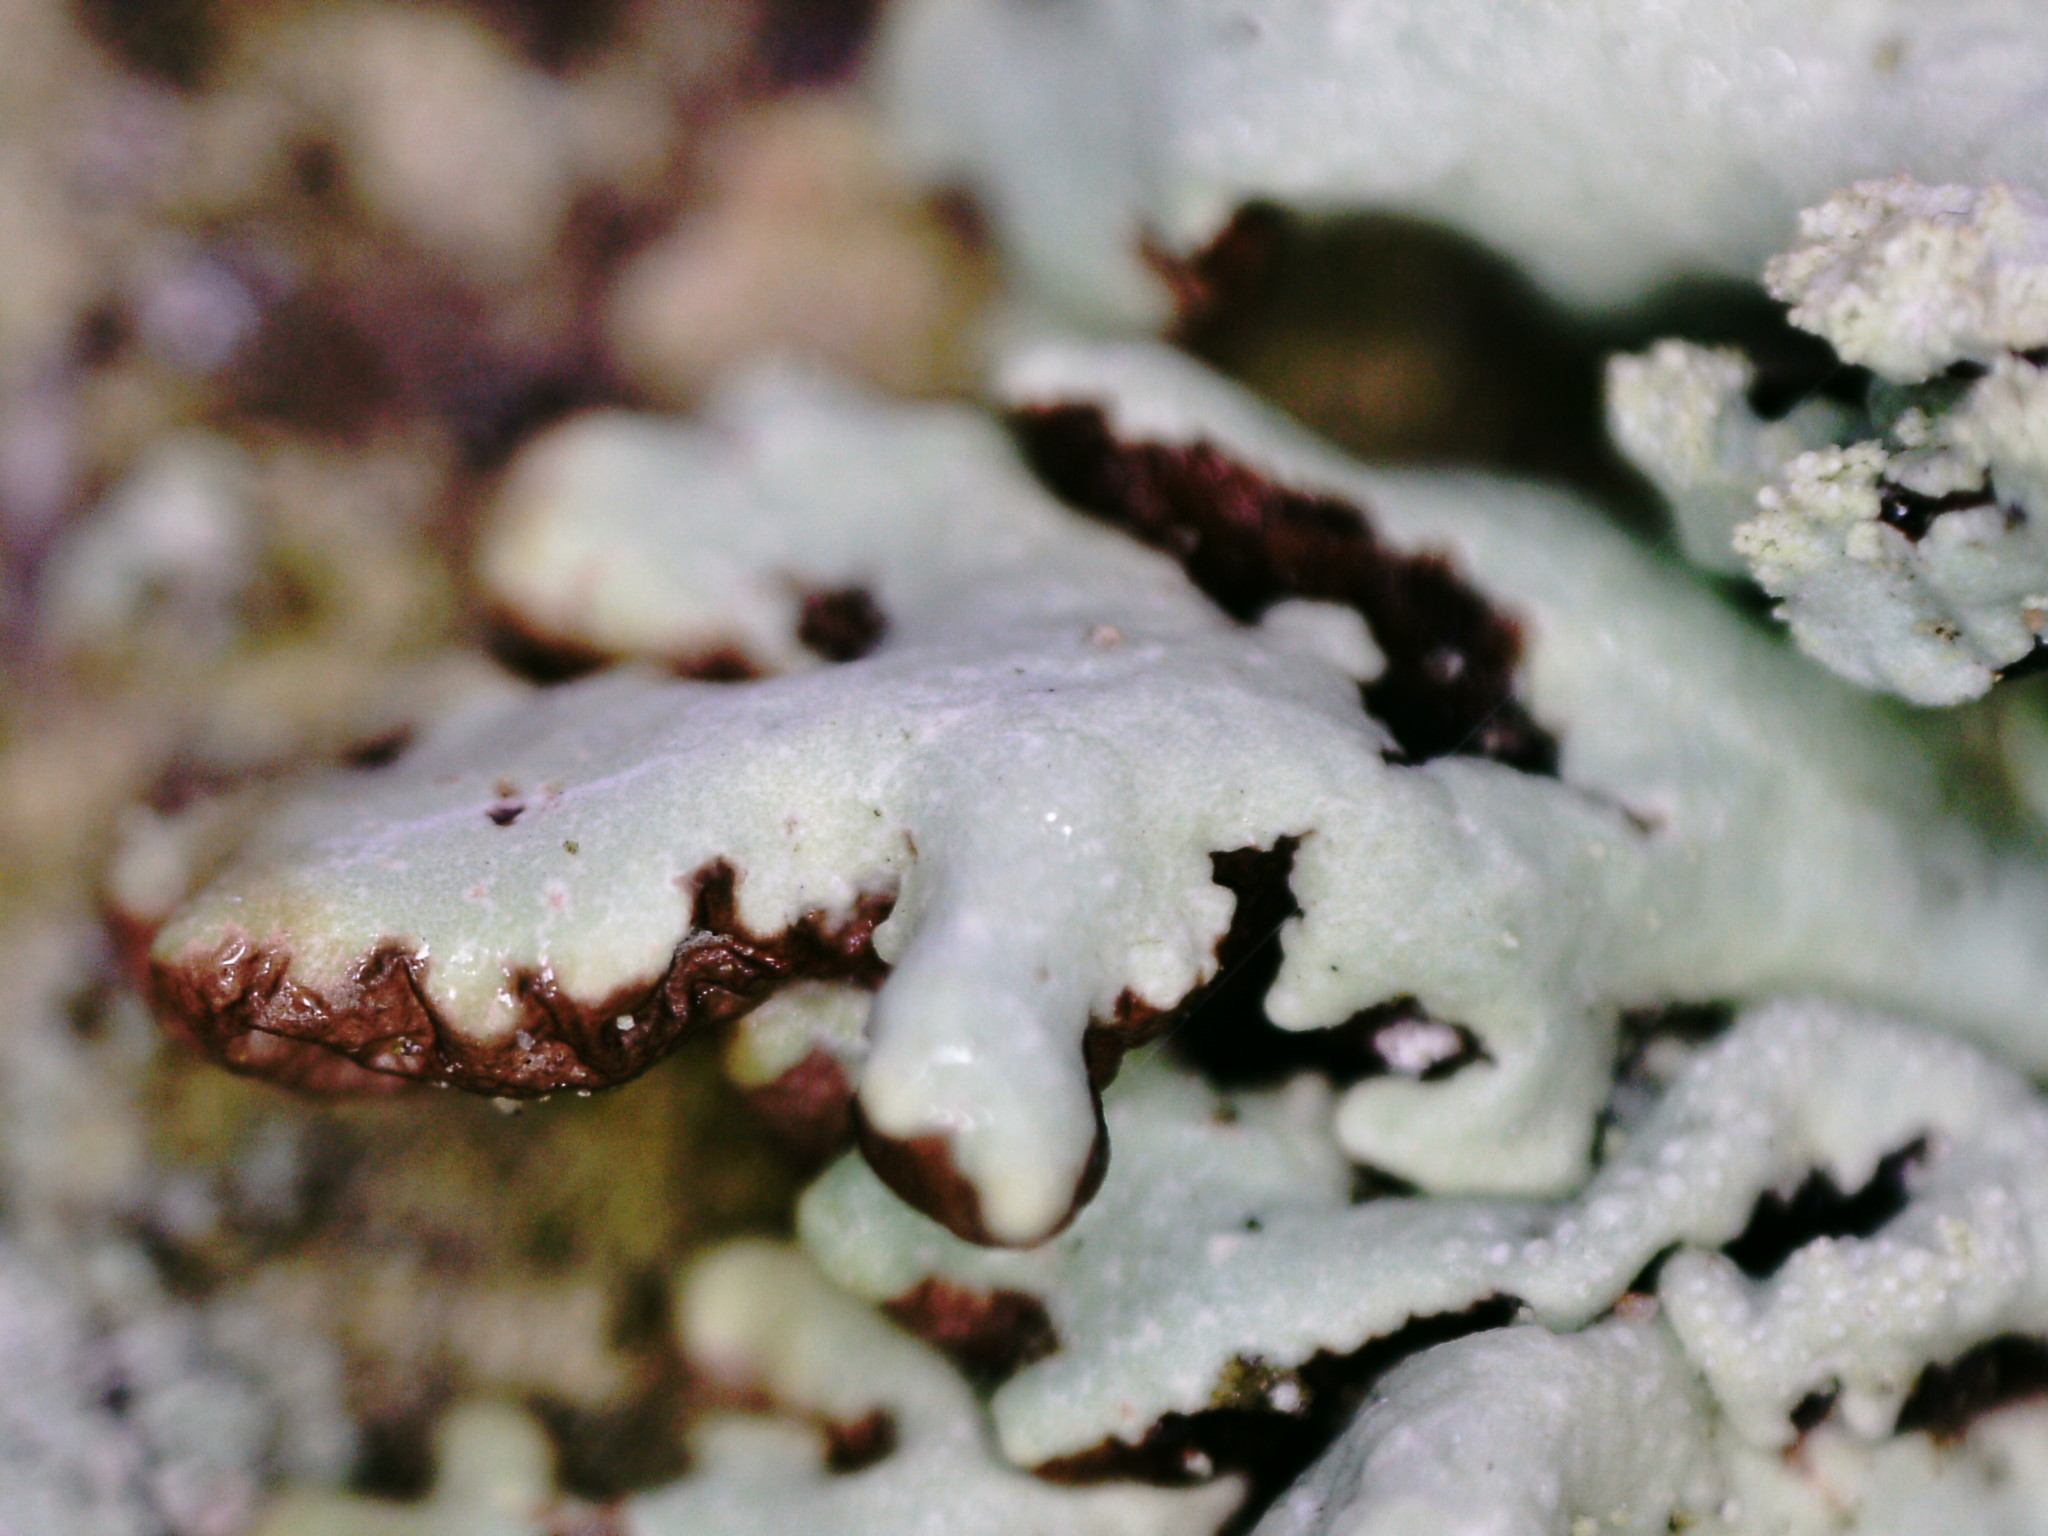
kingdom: Fungi
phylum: Ascomycota
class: Lecanoromycetes
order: Lecanorales
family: Parmeliaceae
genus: Hypogymnia
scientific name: Hypogymnia farinacea
